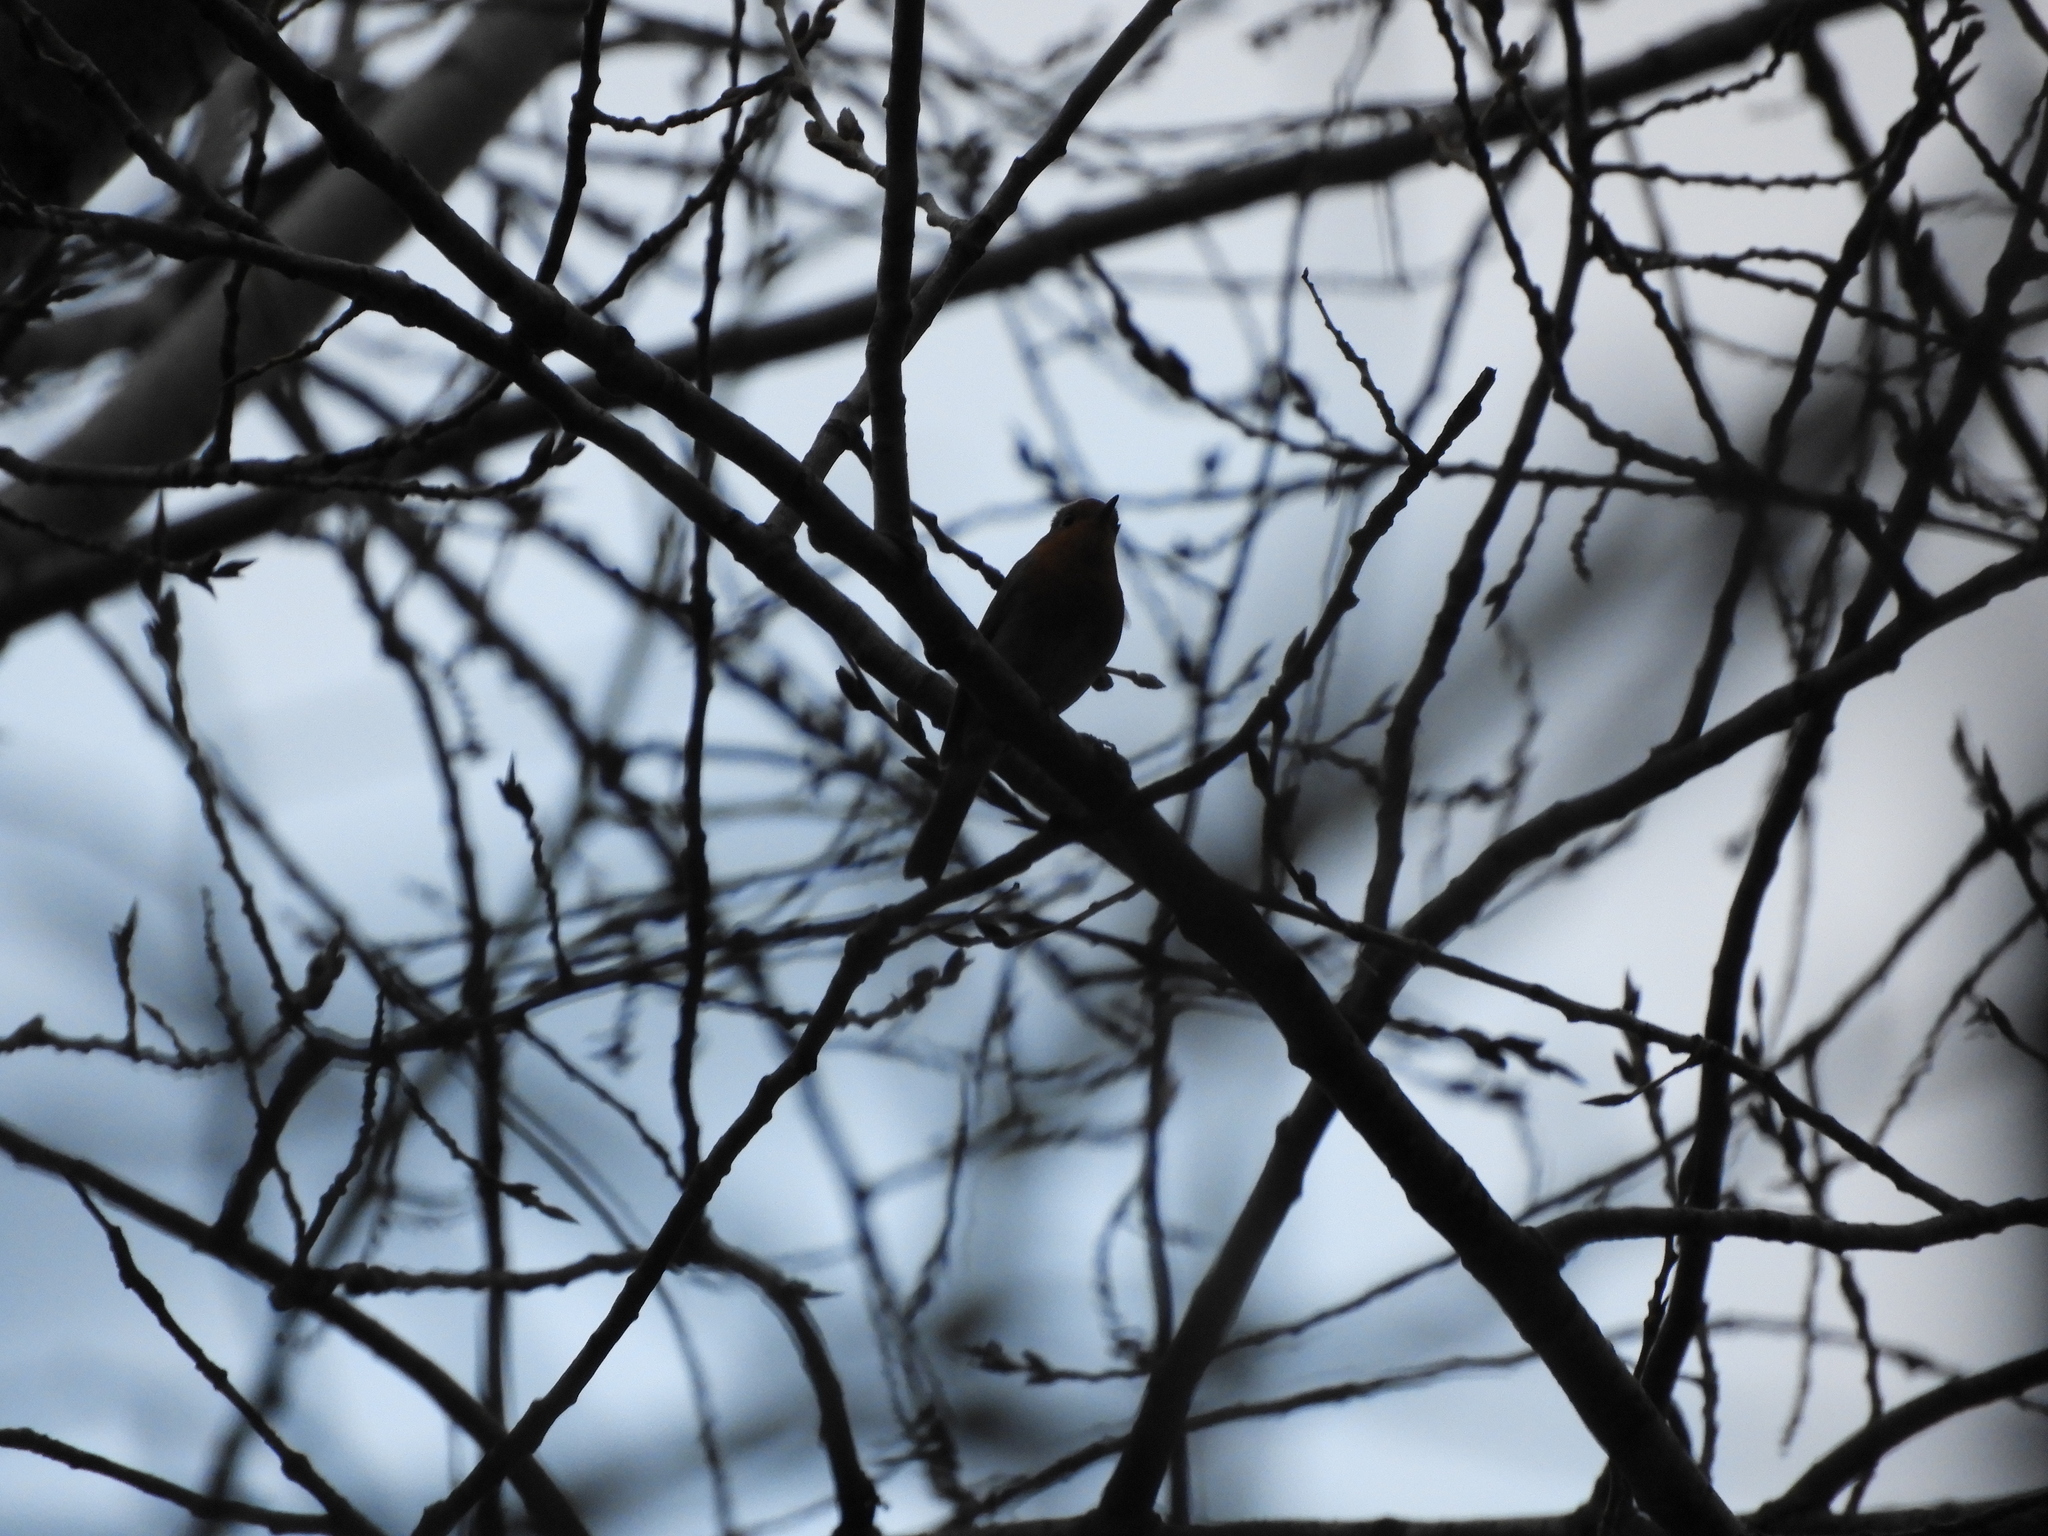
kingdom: Animalia
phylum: Chordata
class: Aves
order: Passeriformes
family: Muscicapidae
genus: Erithacus
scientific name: Erithacus rubecula
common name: European robin
